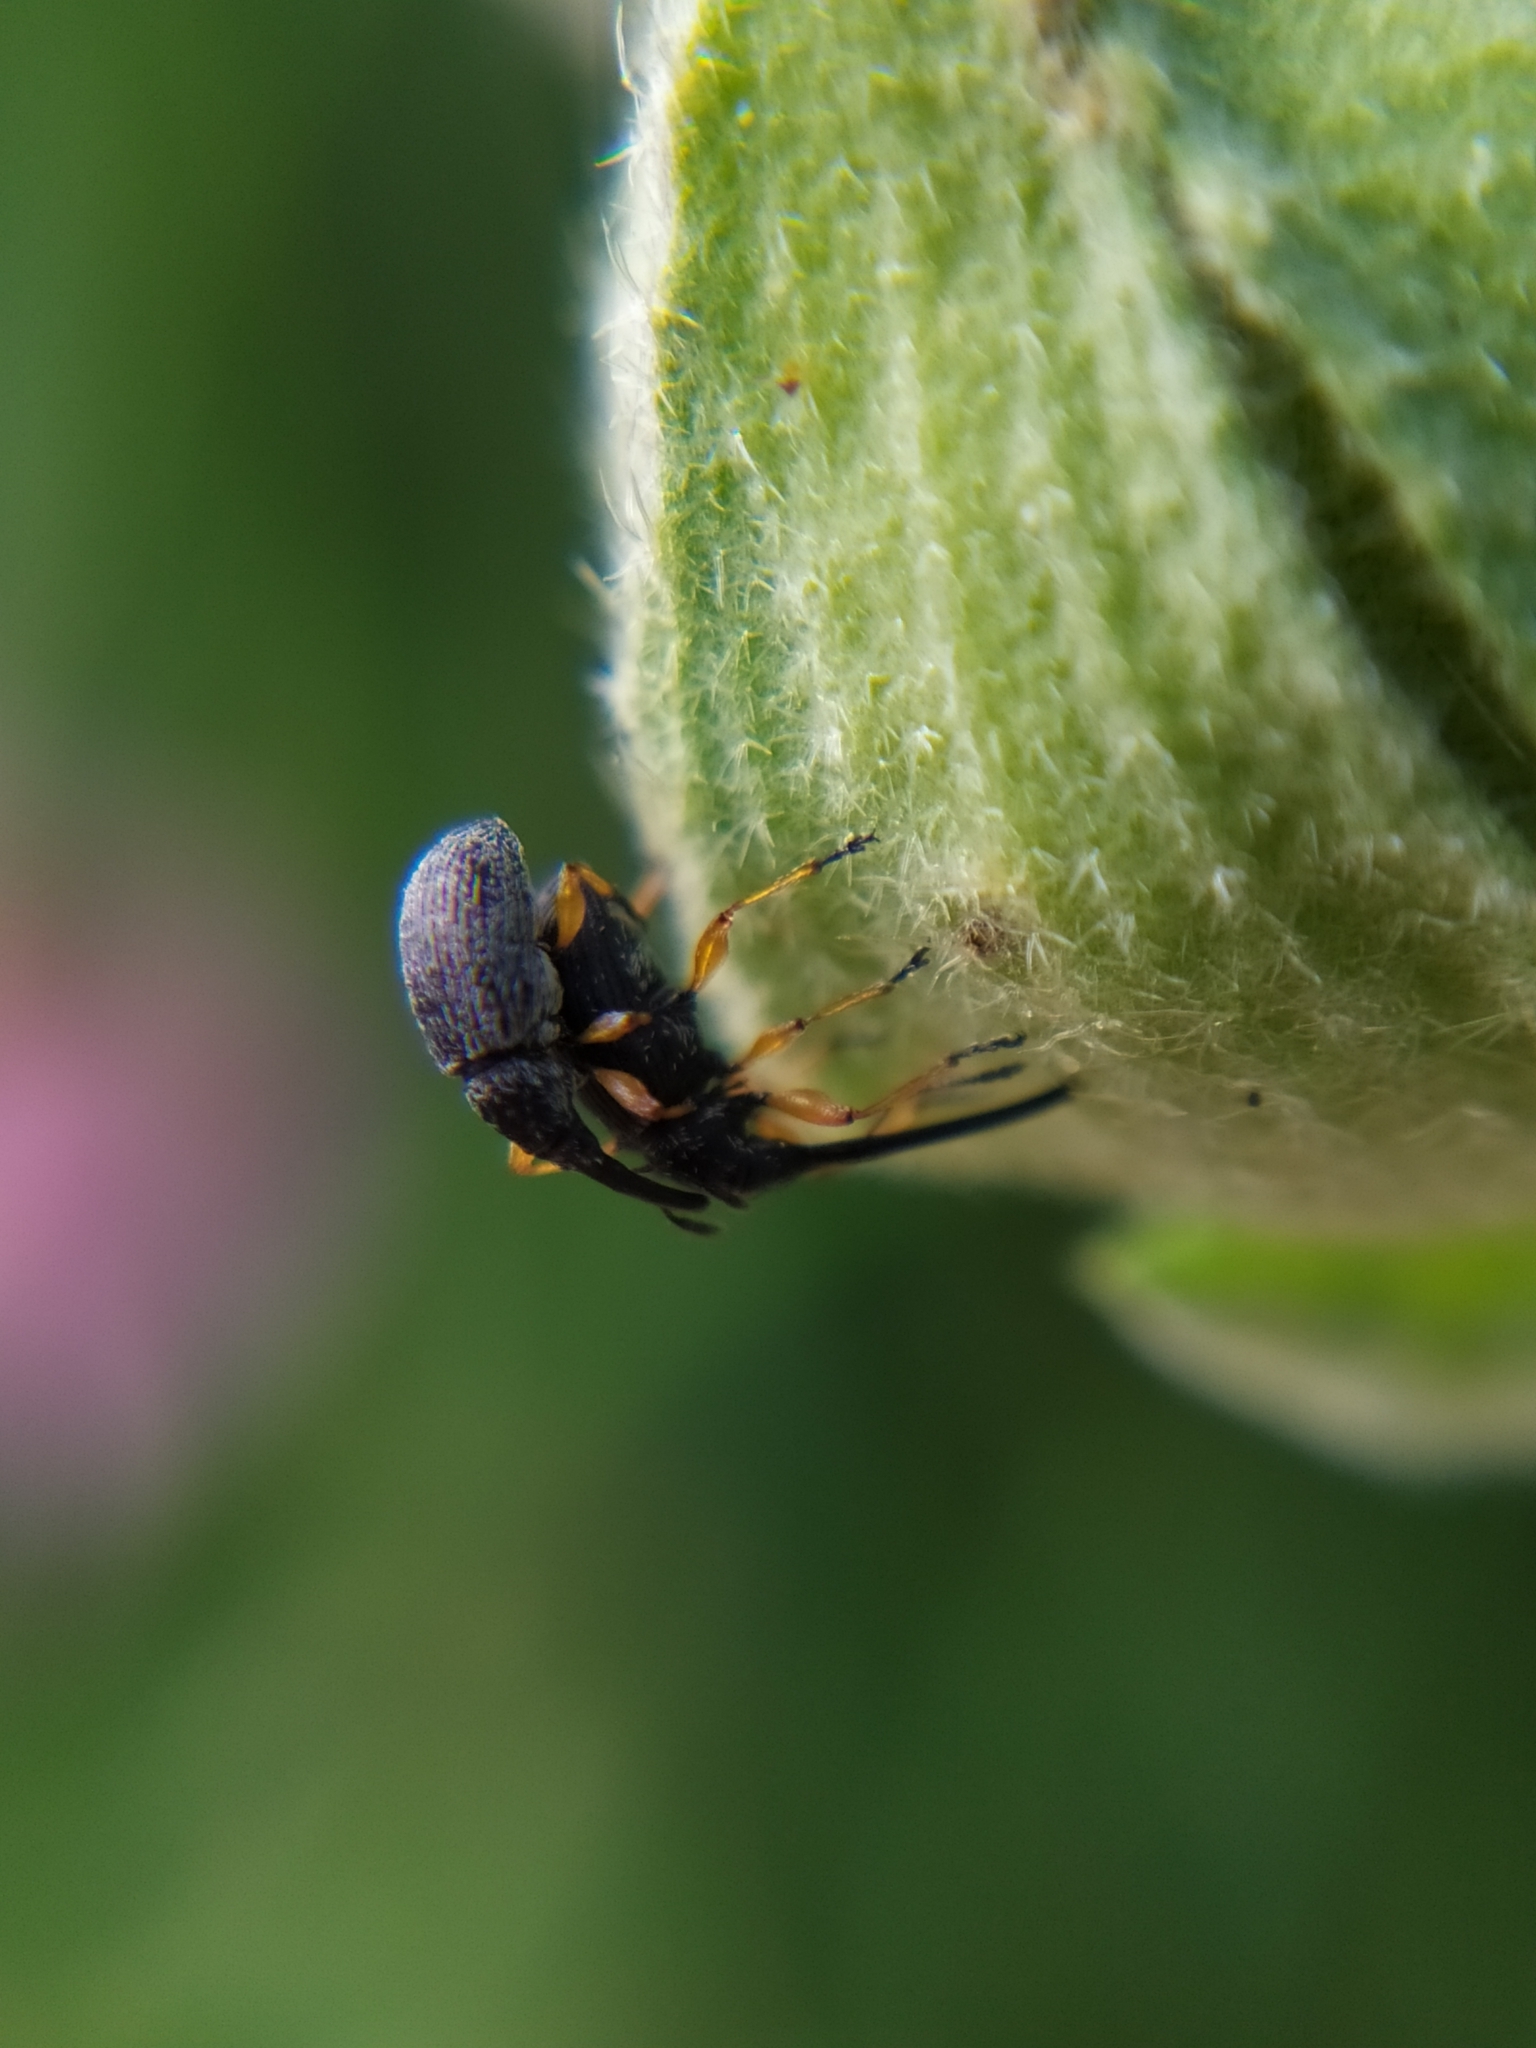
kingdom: Animalia
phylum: Arthropoda
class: Insecta
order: Coleoptera
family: Brentidae
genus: Rhopalapion
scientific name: Rhopalapion longirostre
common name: Hollyhock weevil
